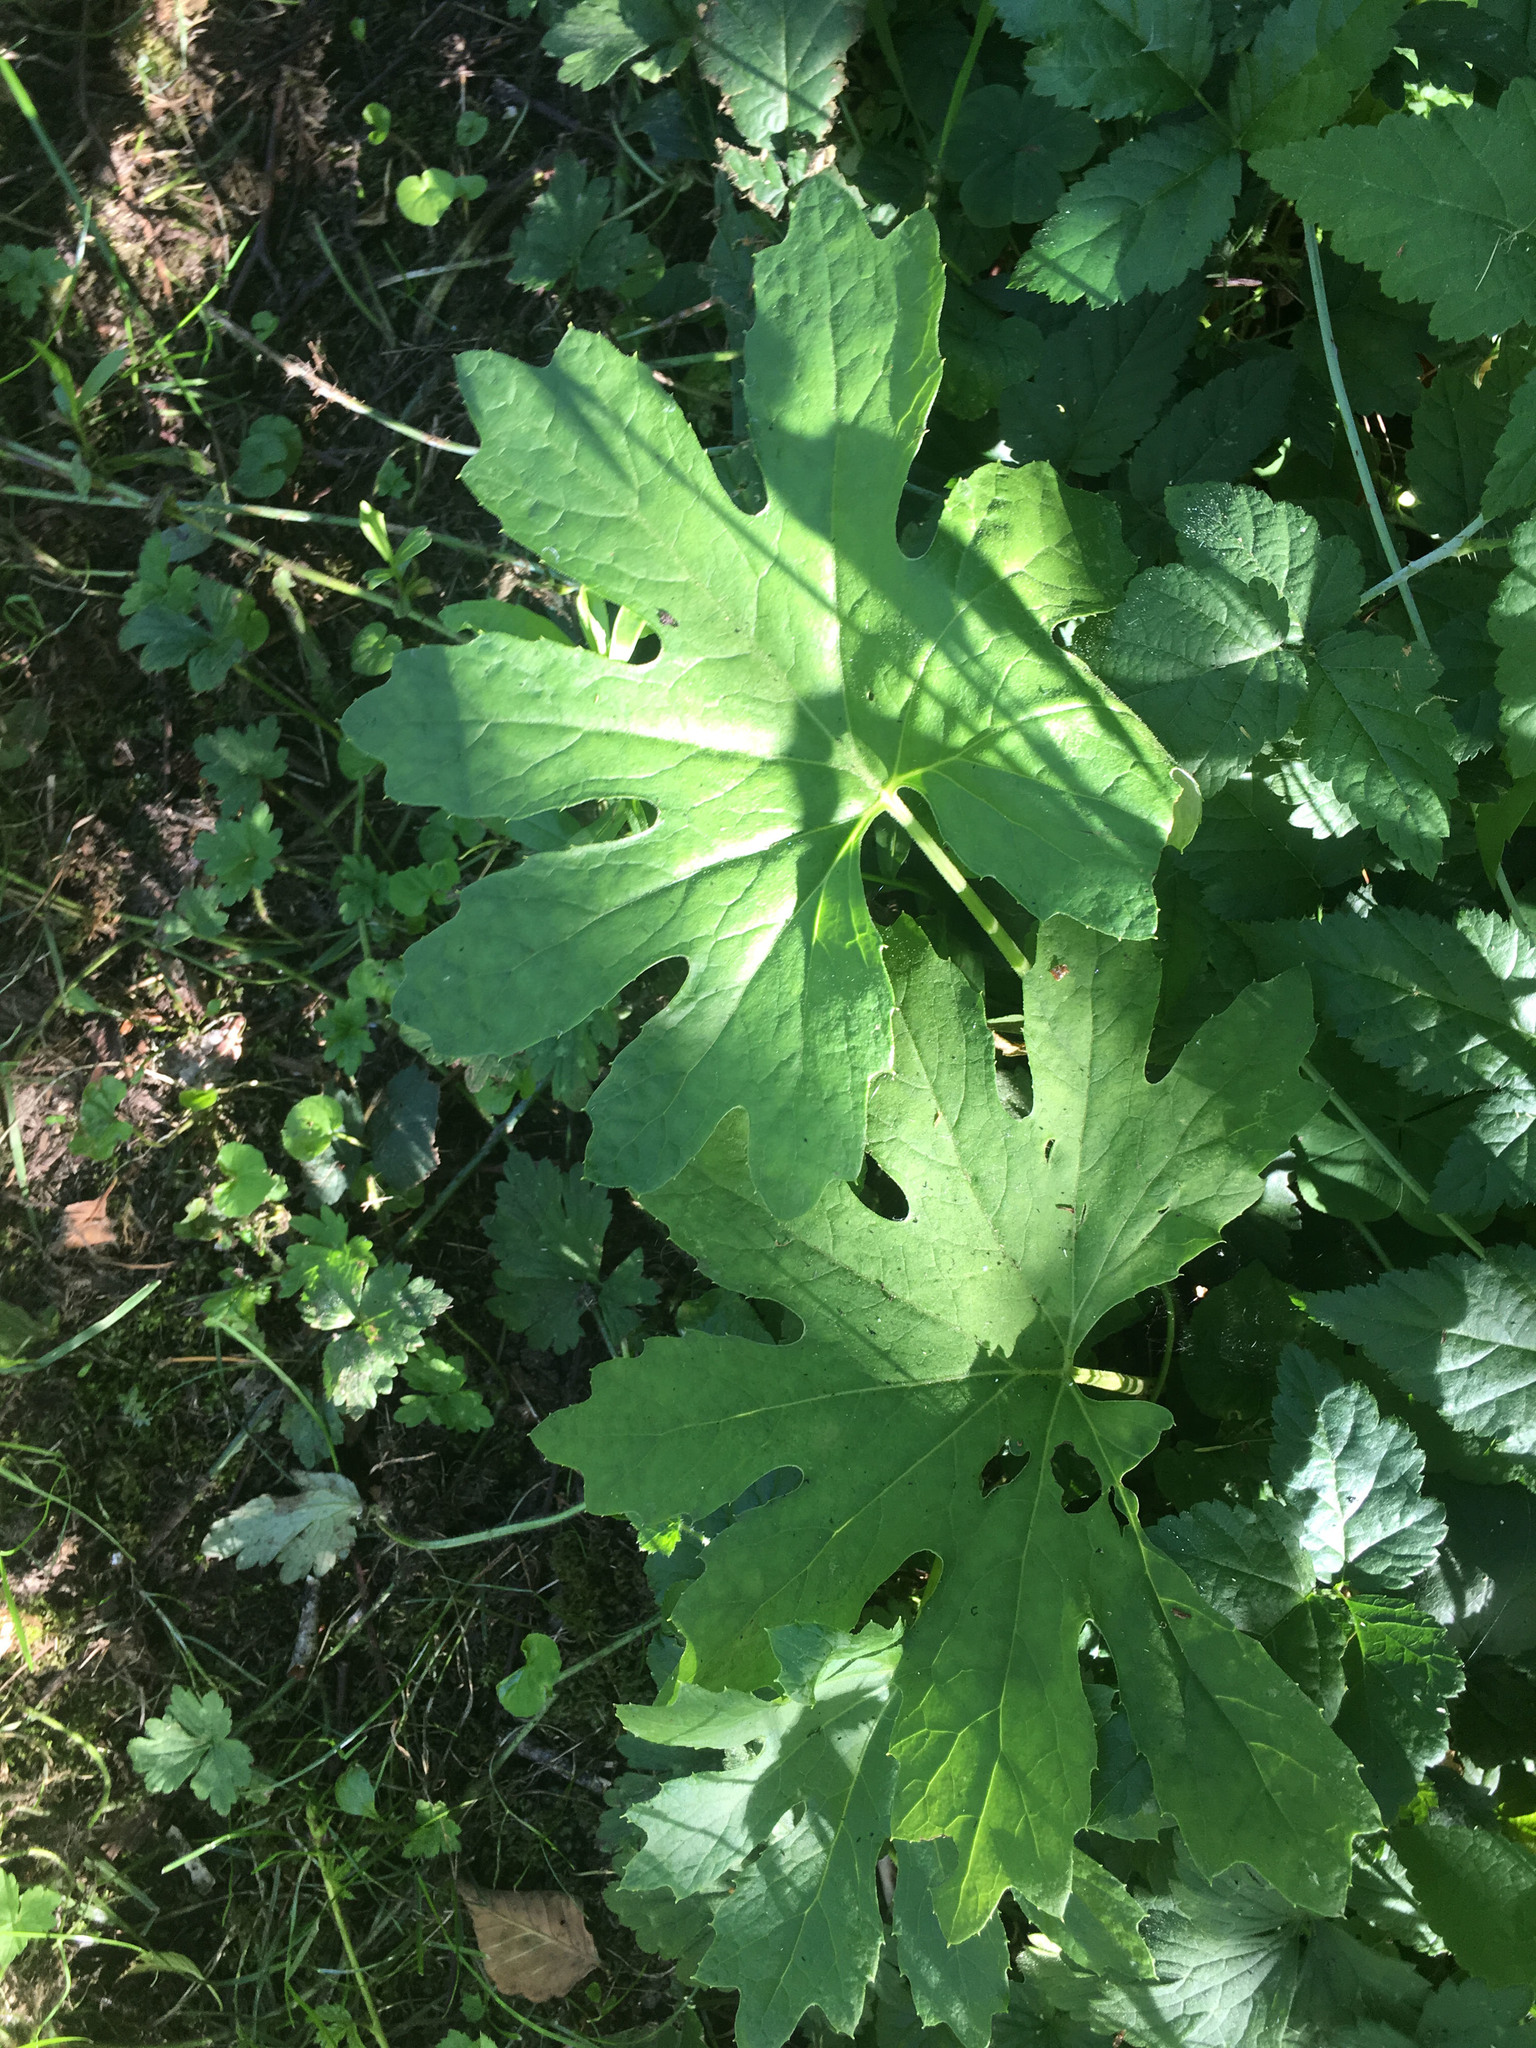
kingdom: Plantae
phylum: Tracheophyta
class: Magnoliopsida
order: Asterales
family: Asteraceae
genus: Petasites
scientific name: Petasites frigidus
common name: Arctic butterbur
